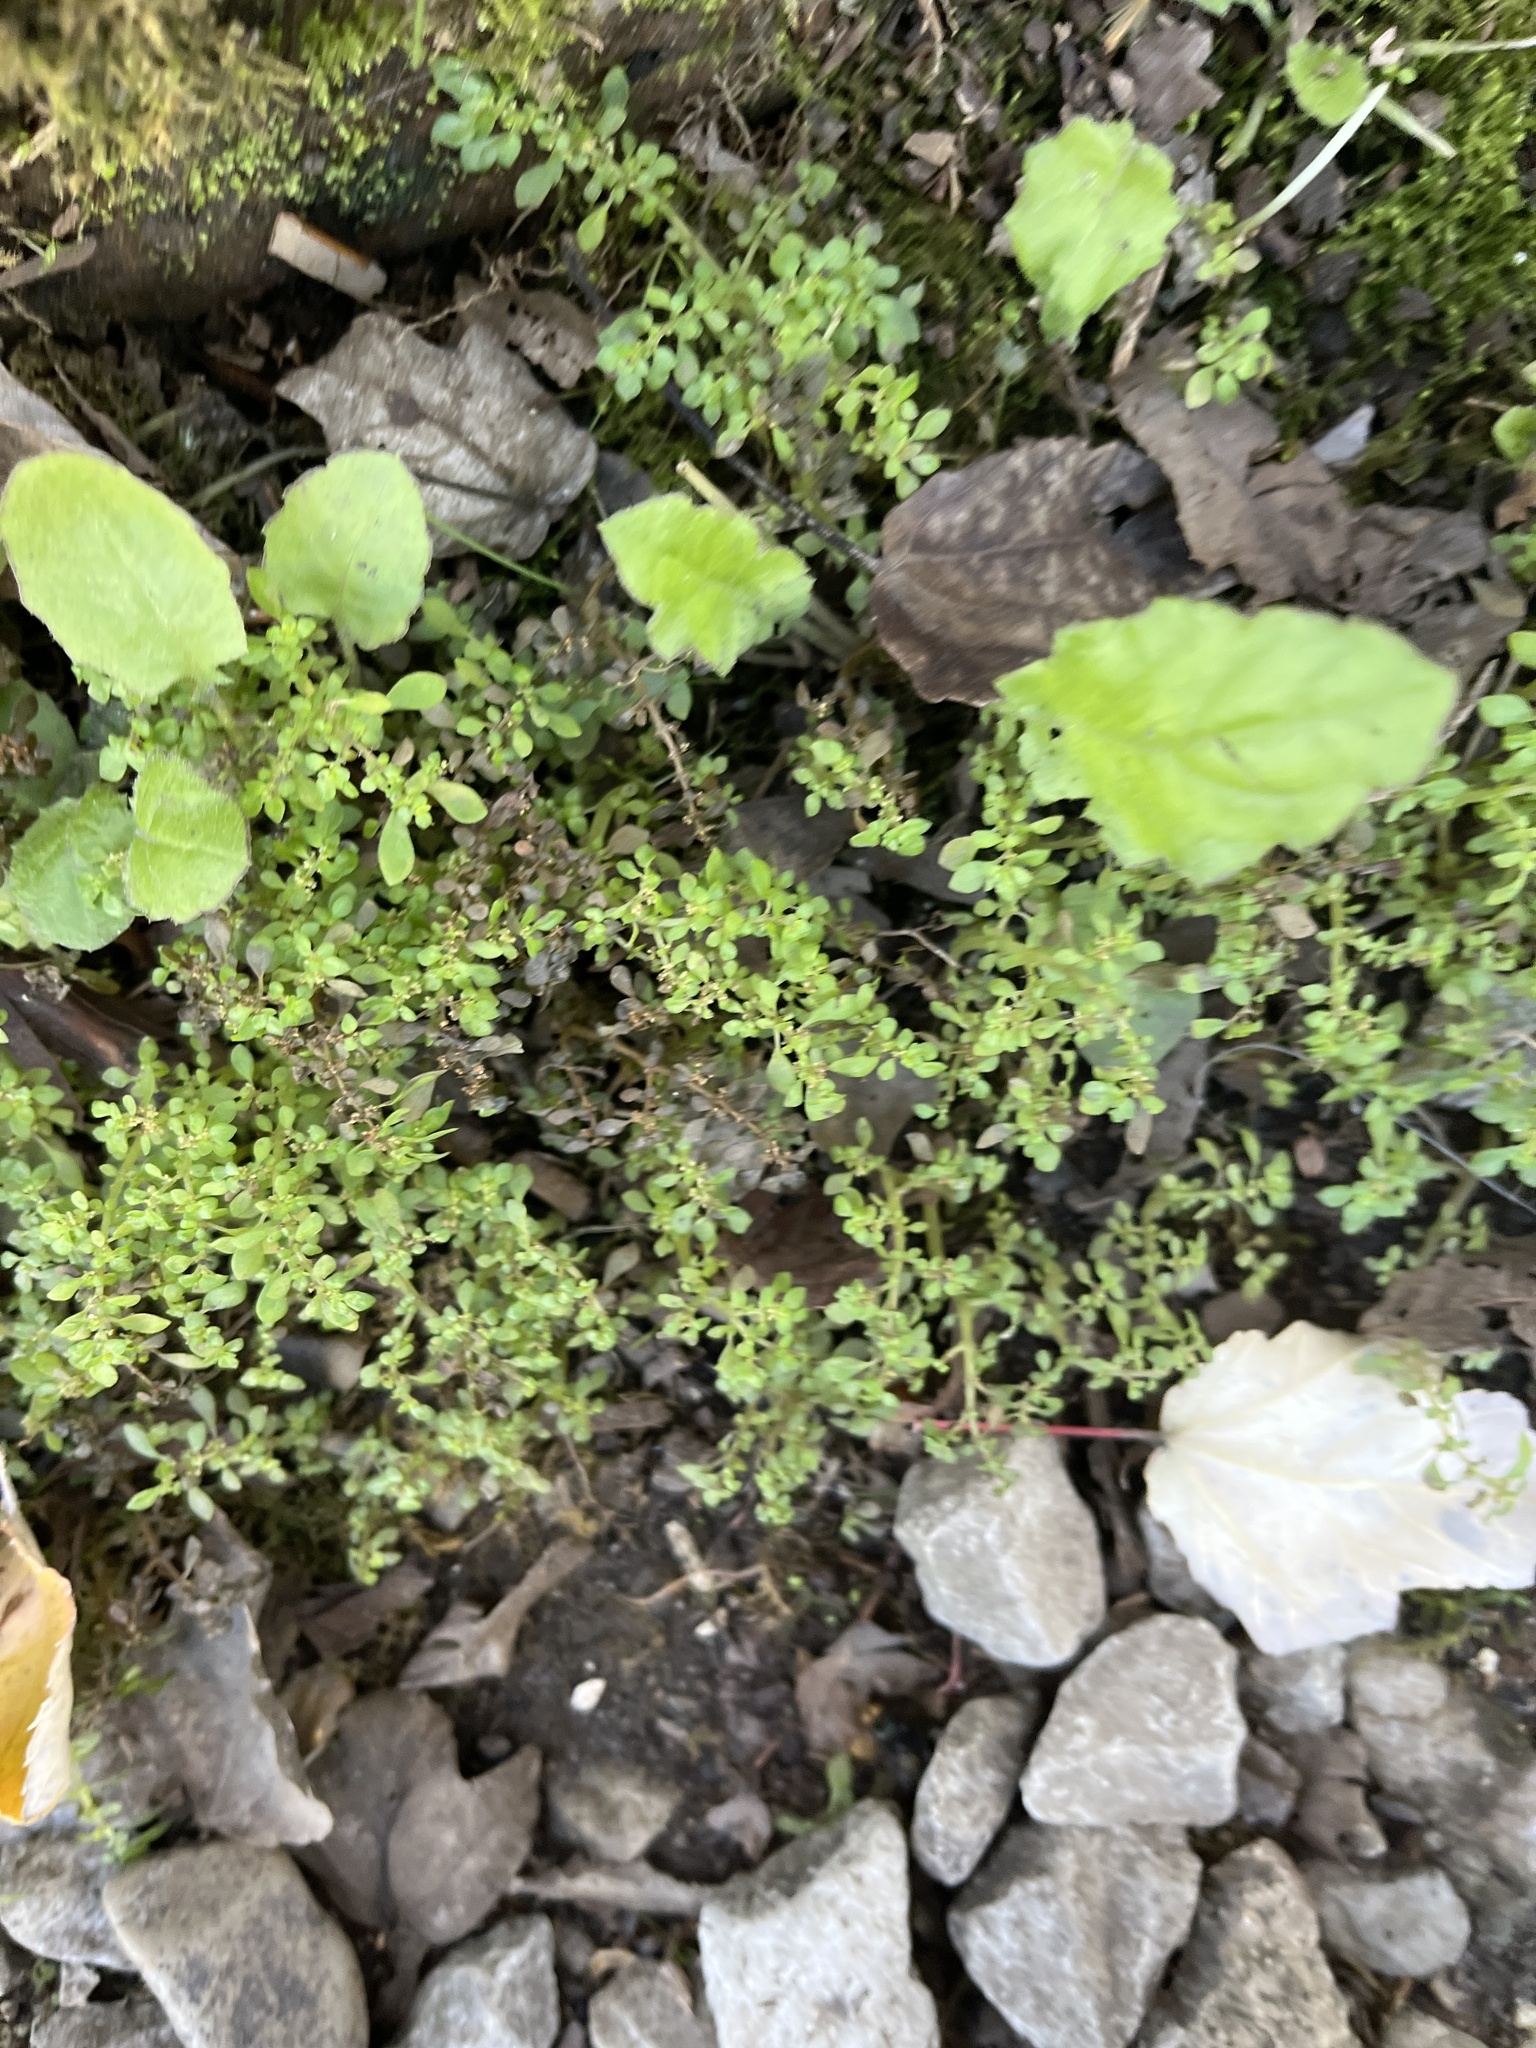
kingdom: Plantae
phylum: Tracheophyta
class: Magnoliopsida
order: Rosales
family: Urticaceae
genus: Pilea
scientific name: Pilea microphylla
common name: Artillery-plant
